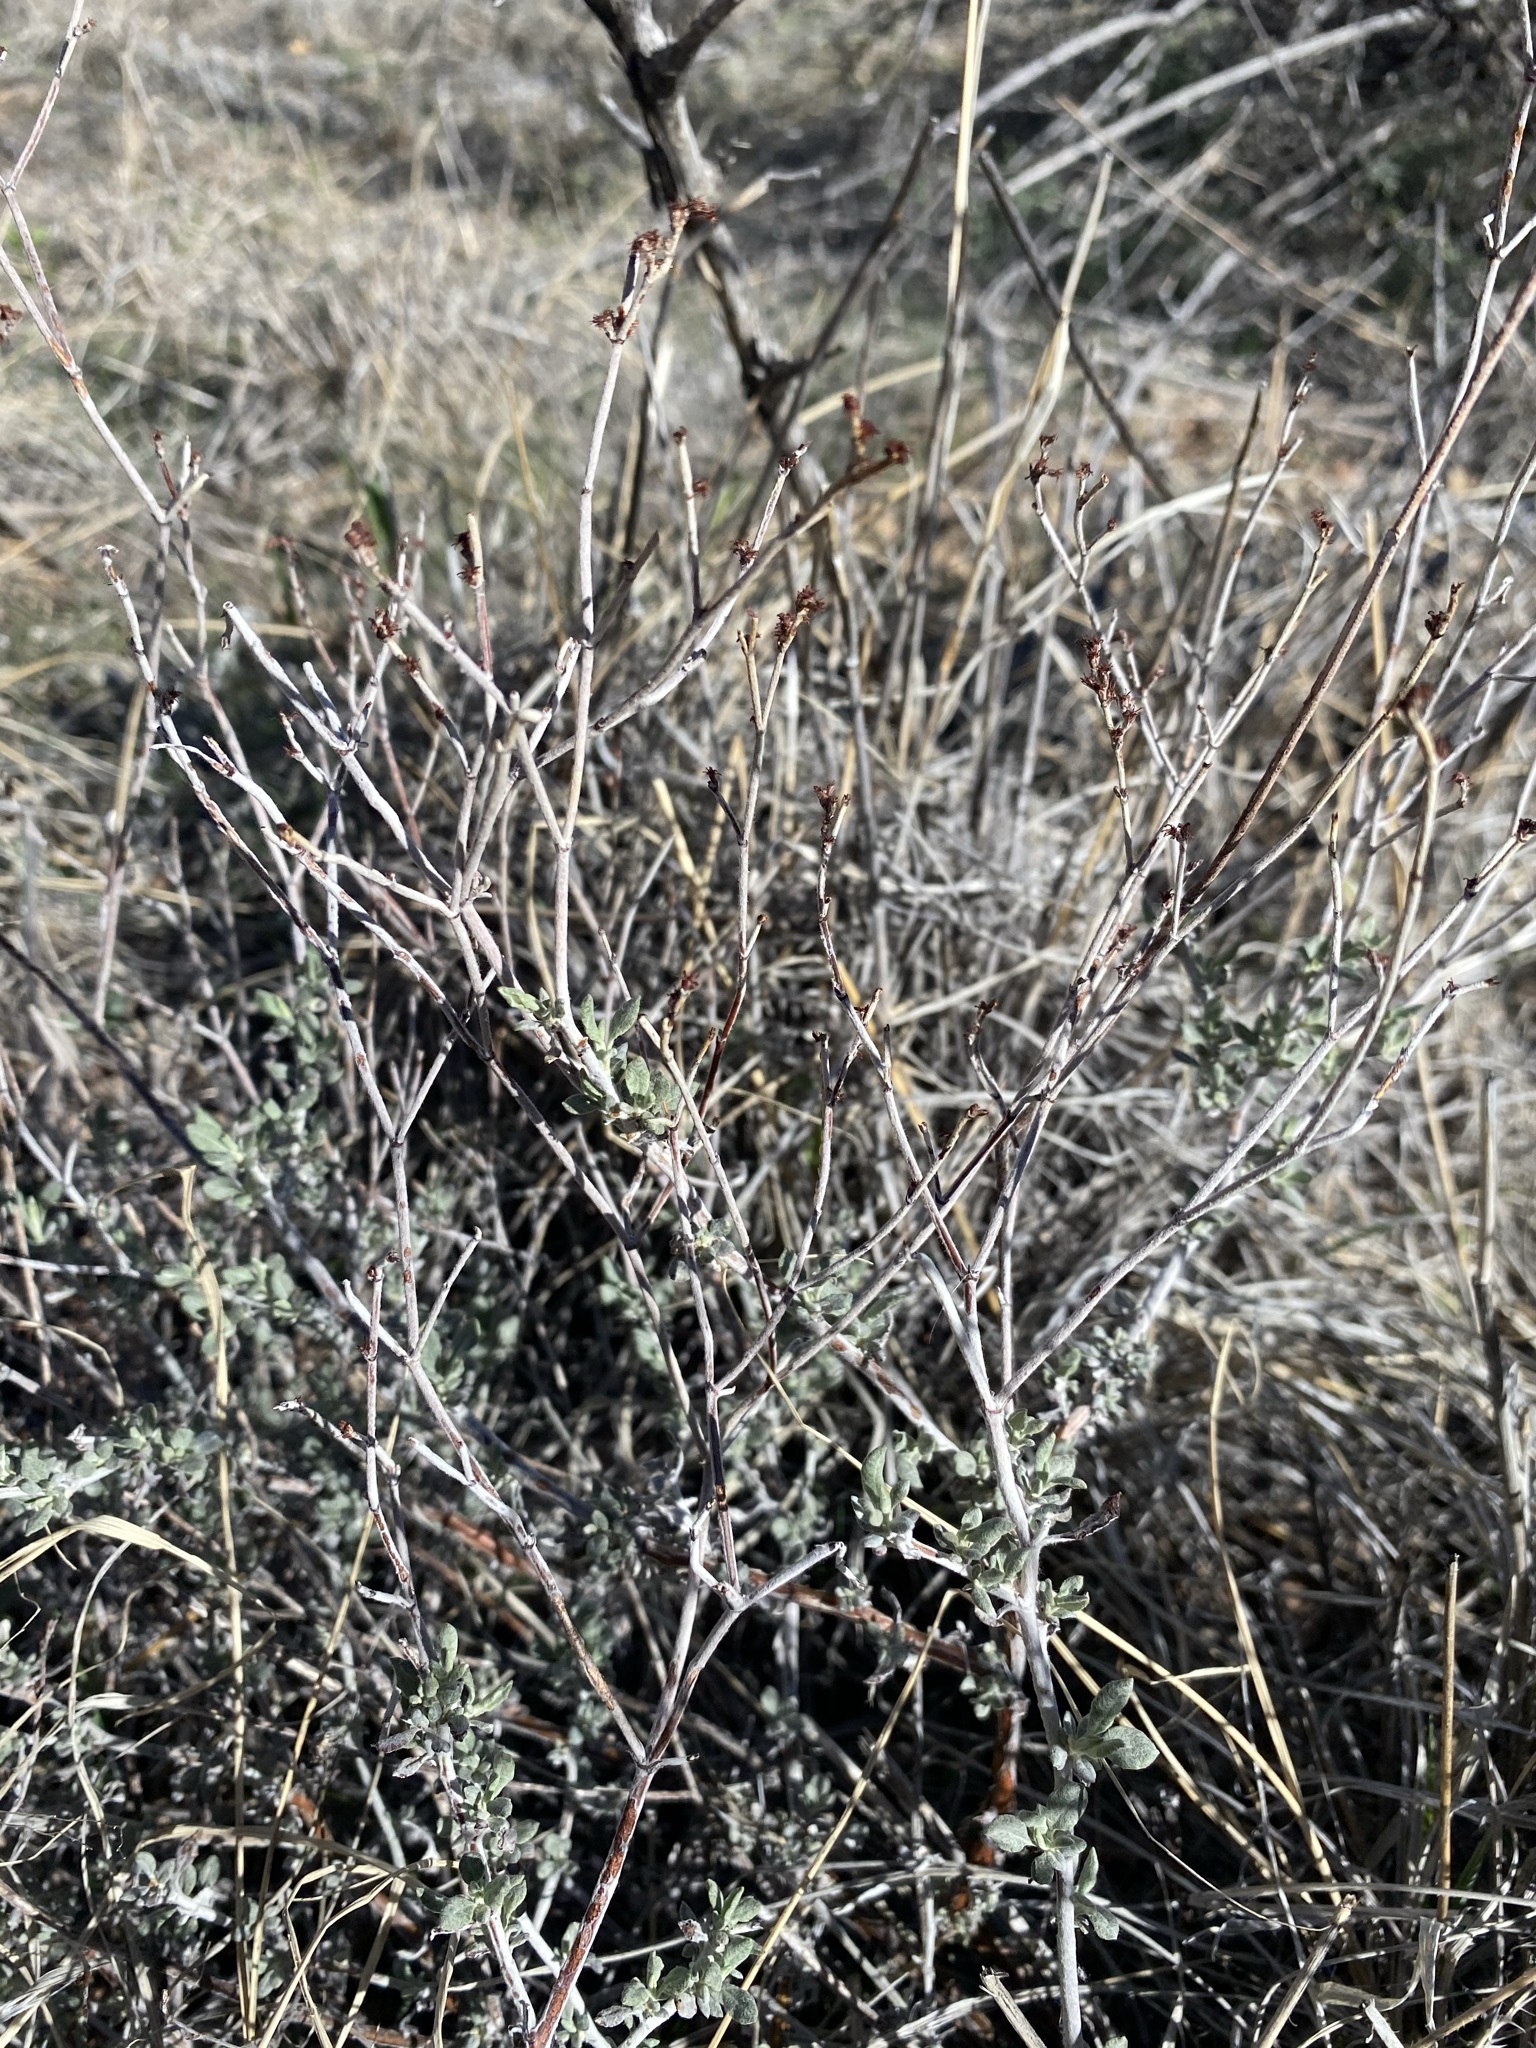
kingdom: Plantae
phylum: Tracheophyta
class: Magnoliopsida
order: Caryophyllales
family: Polygonaceae
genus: Eriogonum
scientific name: Eriogonum wrightii
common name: Bastard-sage
